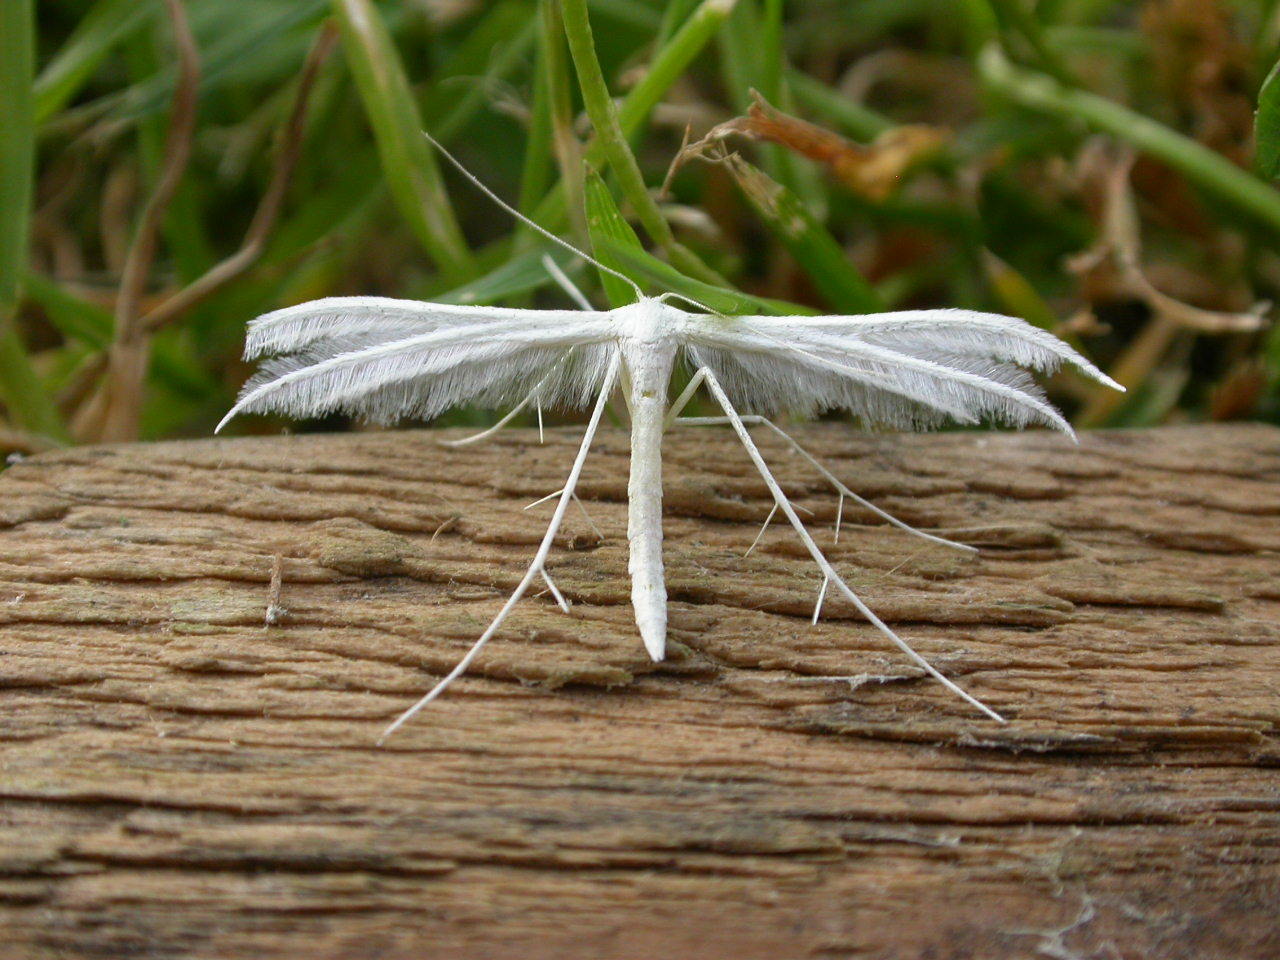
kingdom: Animalia
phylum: Arthropoda
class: Insecta
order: Lepidoptera
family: Pterophoridae
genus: Pterophorus
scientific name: Pterophorus pentadactyla
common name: White plume moth
